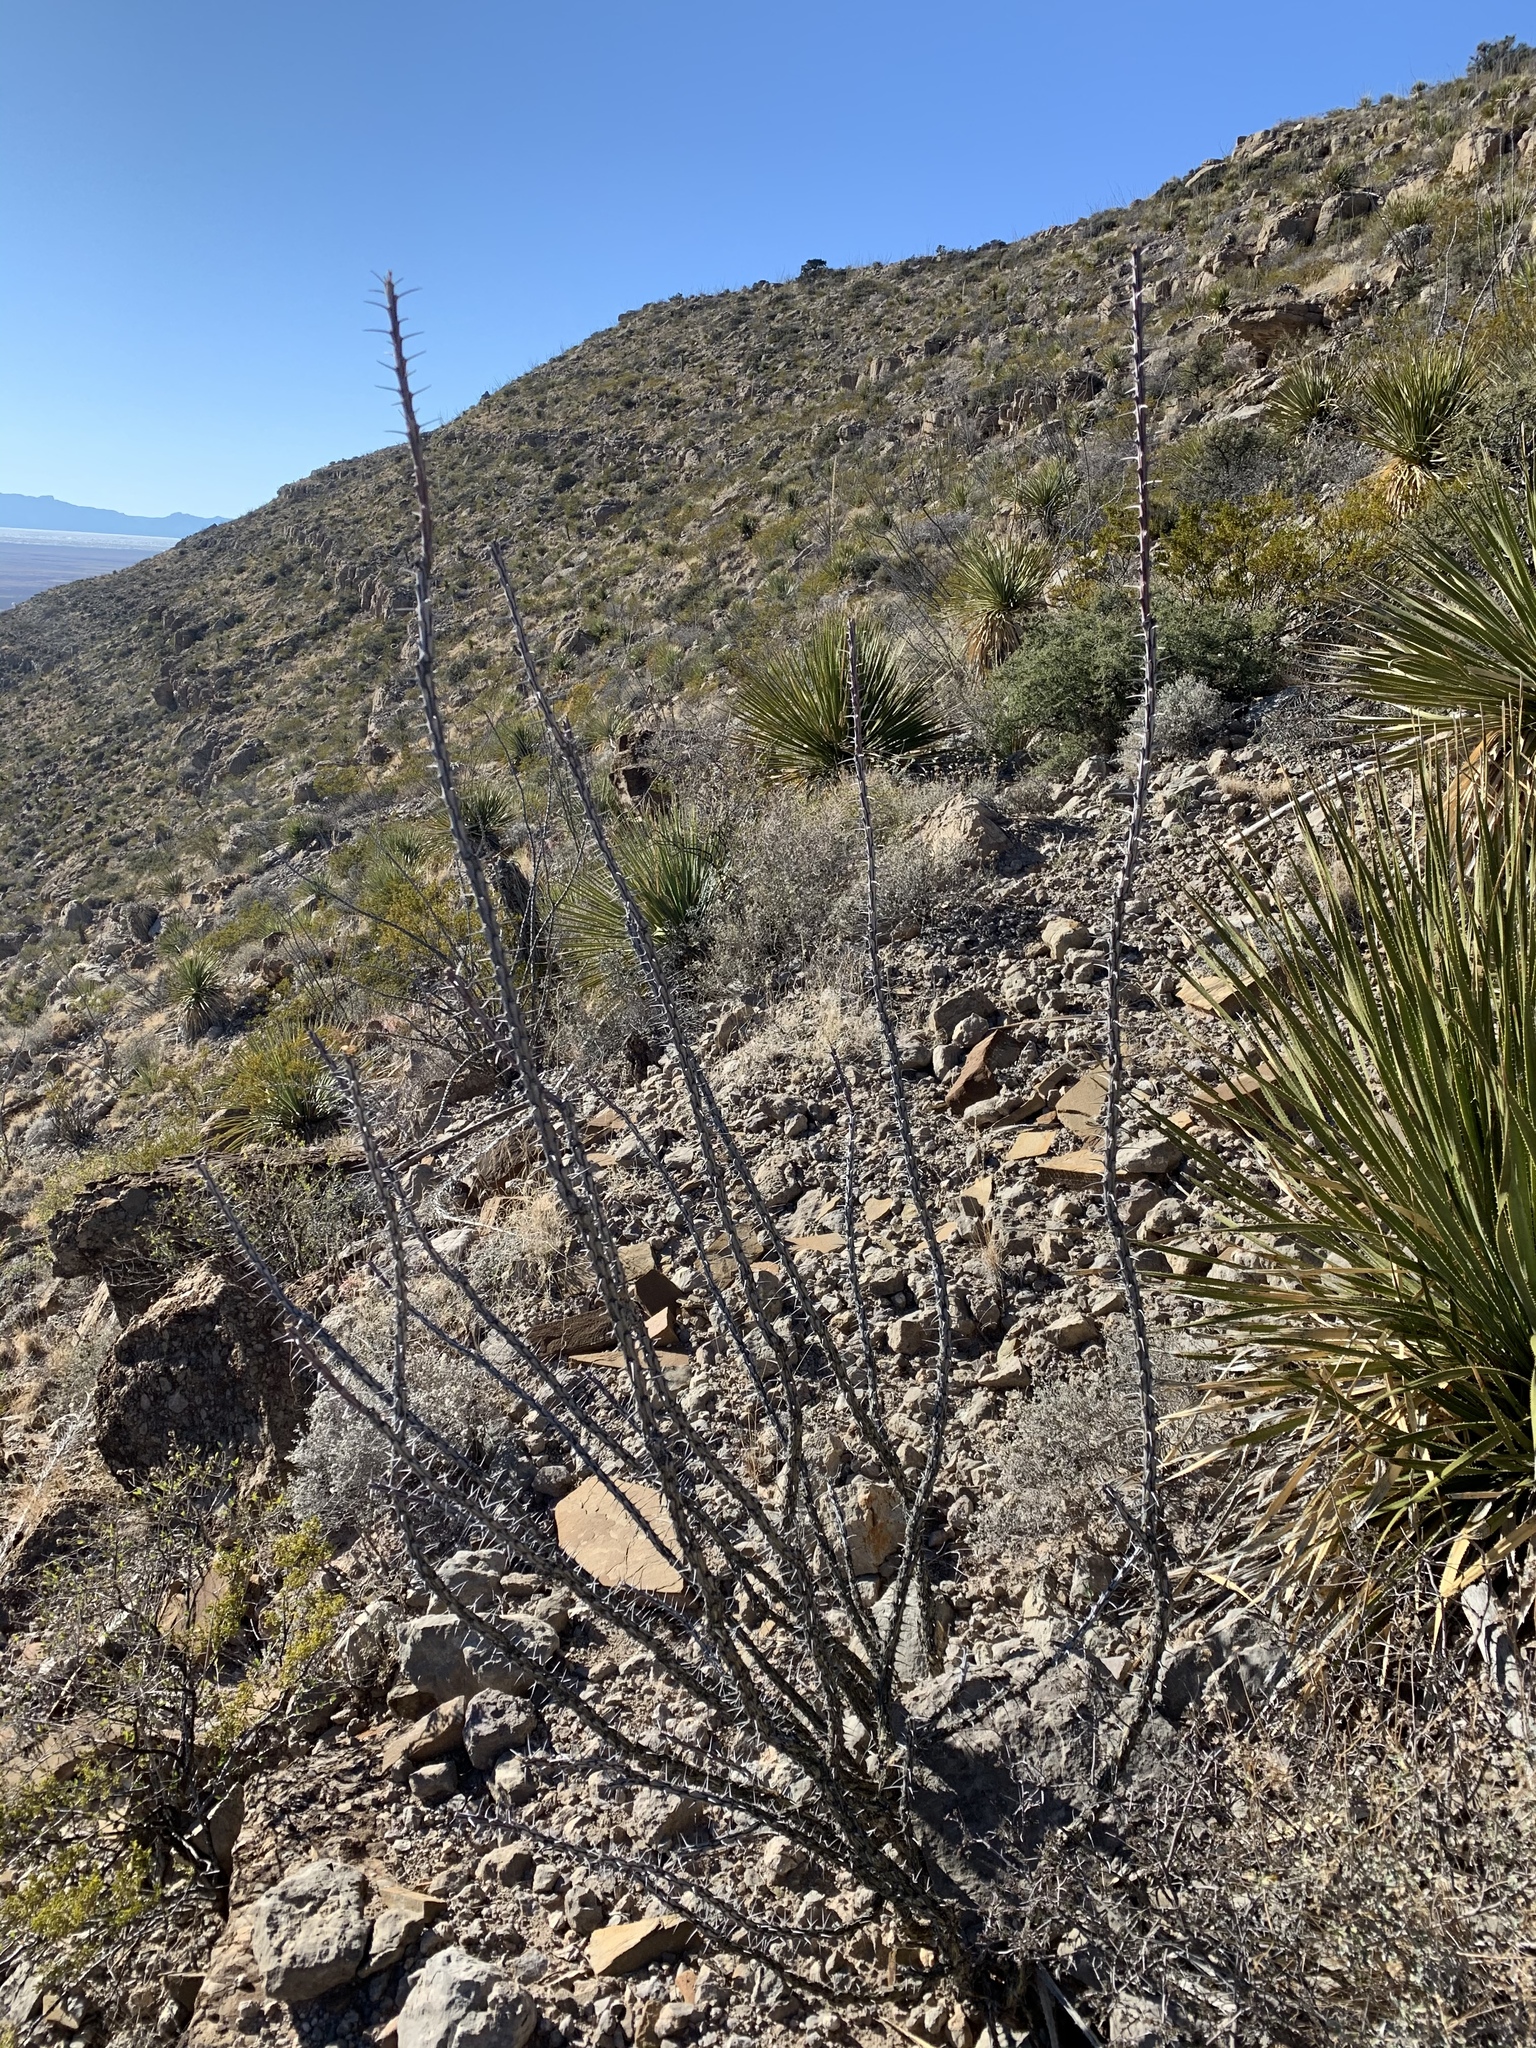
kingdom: Plantae
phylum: Tracheophyta
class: Magnoliopsida
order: Ericales
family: Fouquieriaceae
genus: Fouquieria
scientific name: Fouquieria splendens
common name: Vine-cactus
